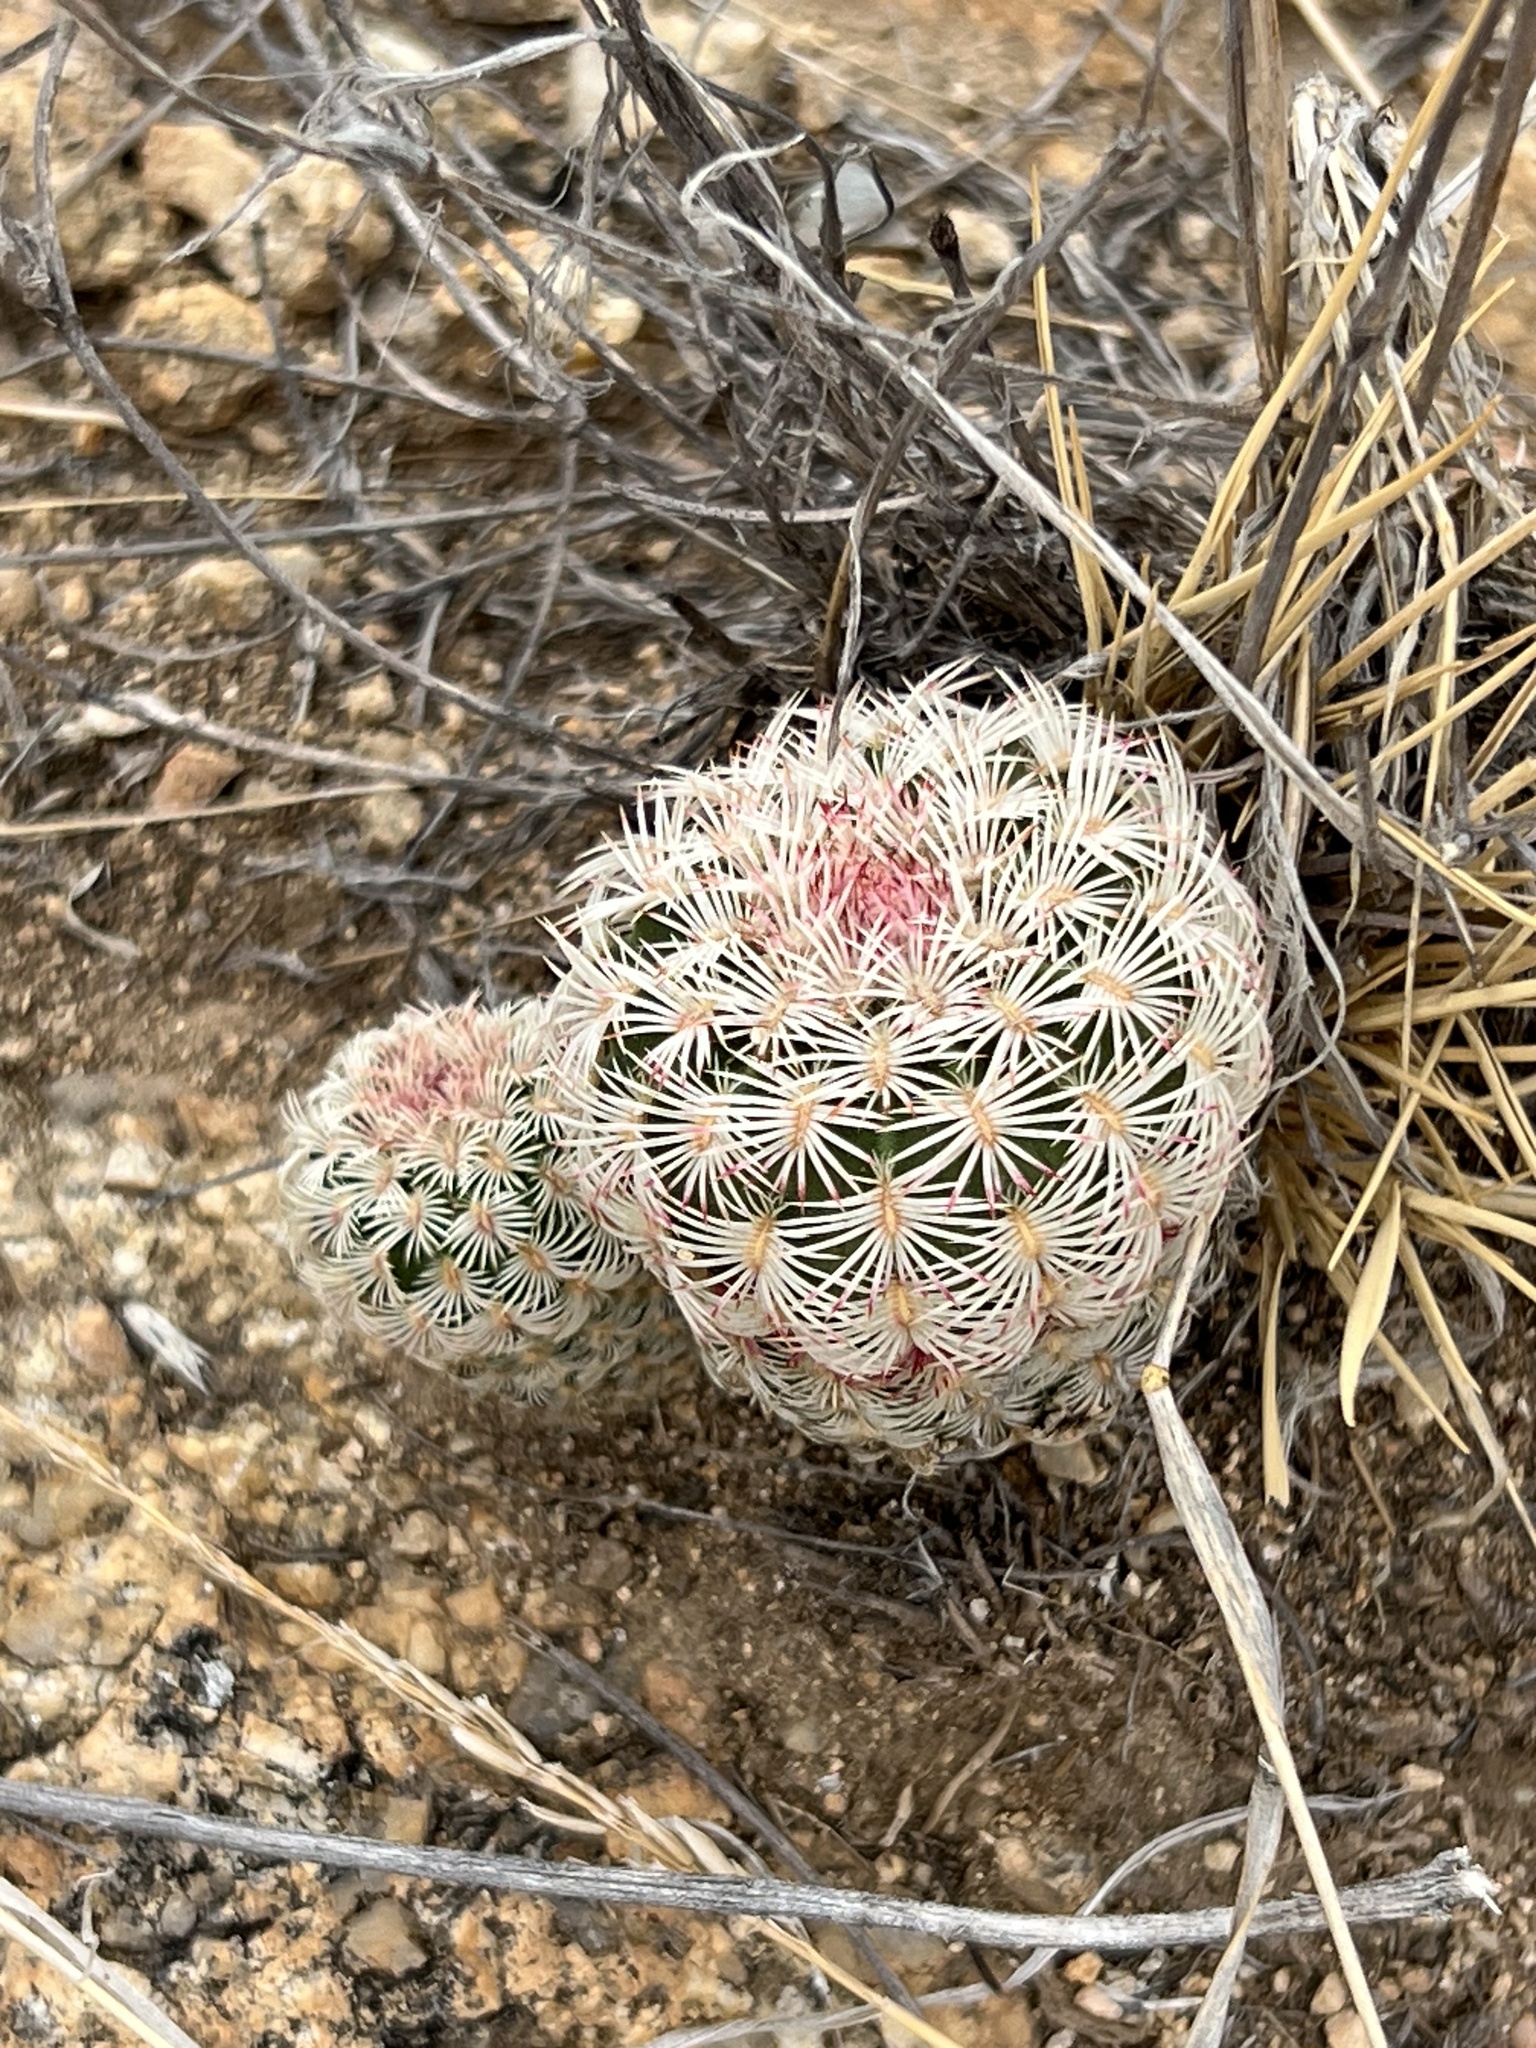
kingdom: Plantae
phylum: Tracheophyta
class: Magnoliopsida
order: Caryophyllales
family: Cactaceae
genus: Echinocereus
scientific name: Echinocereus rigidissimus
